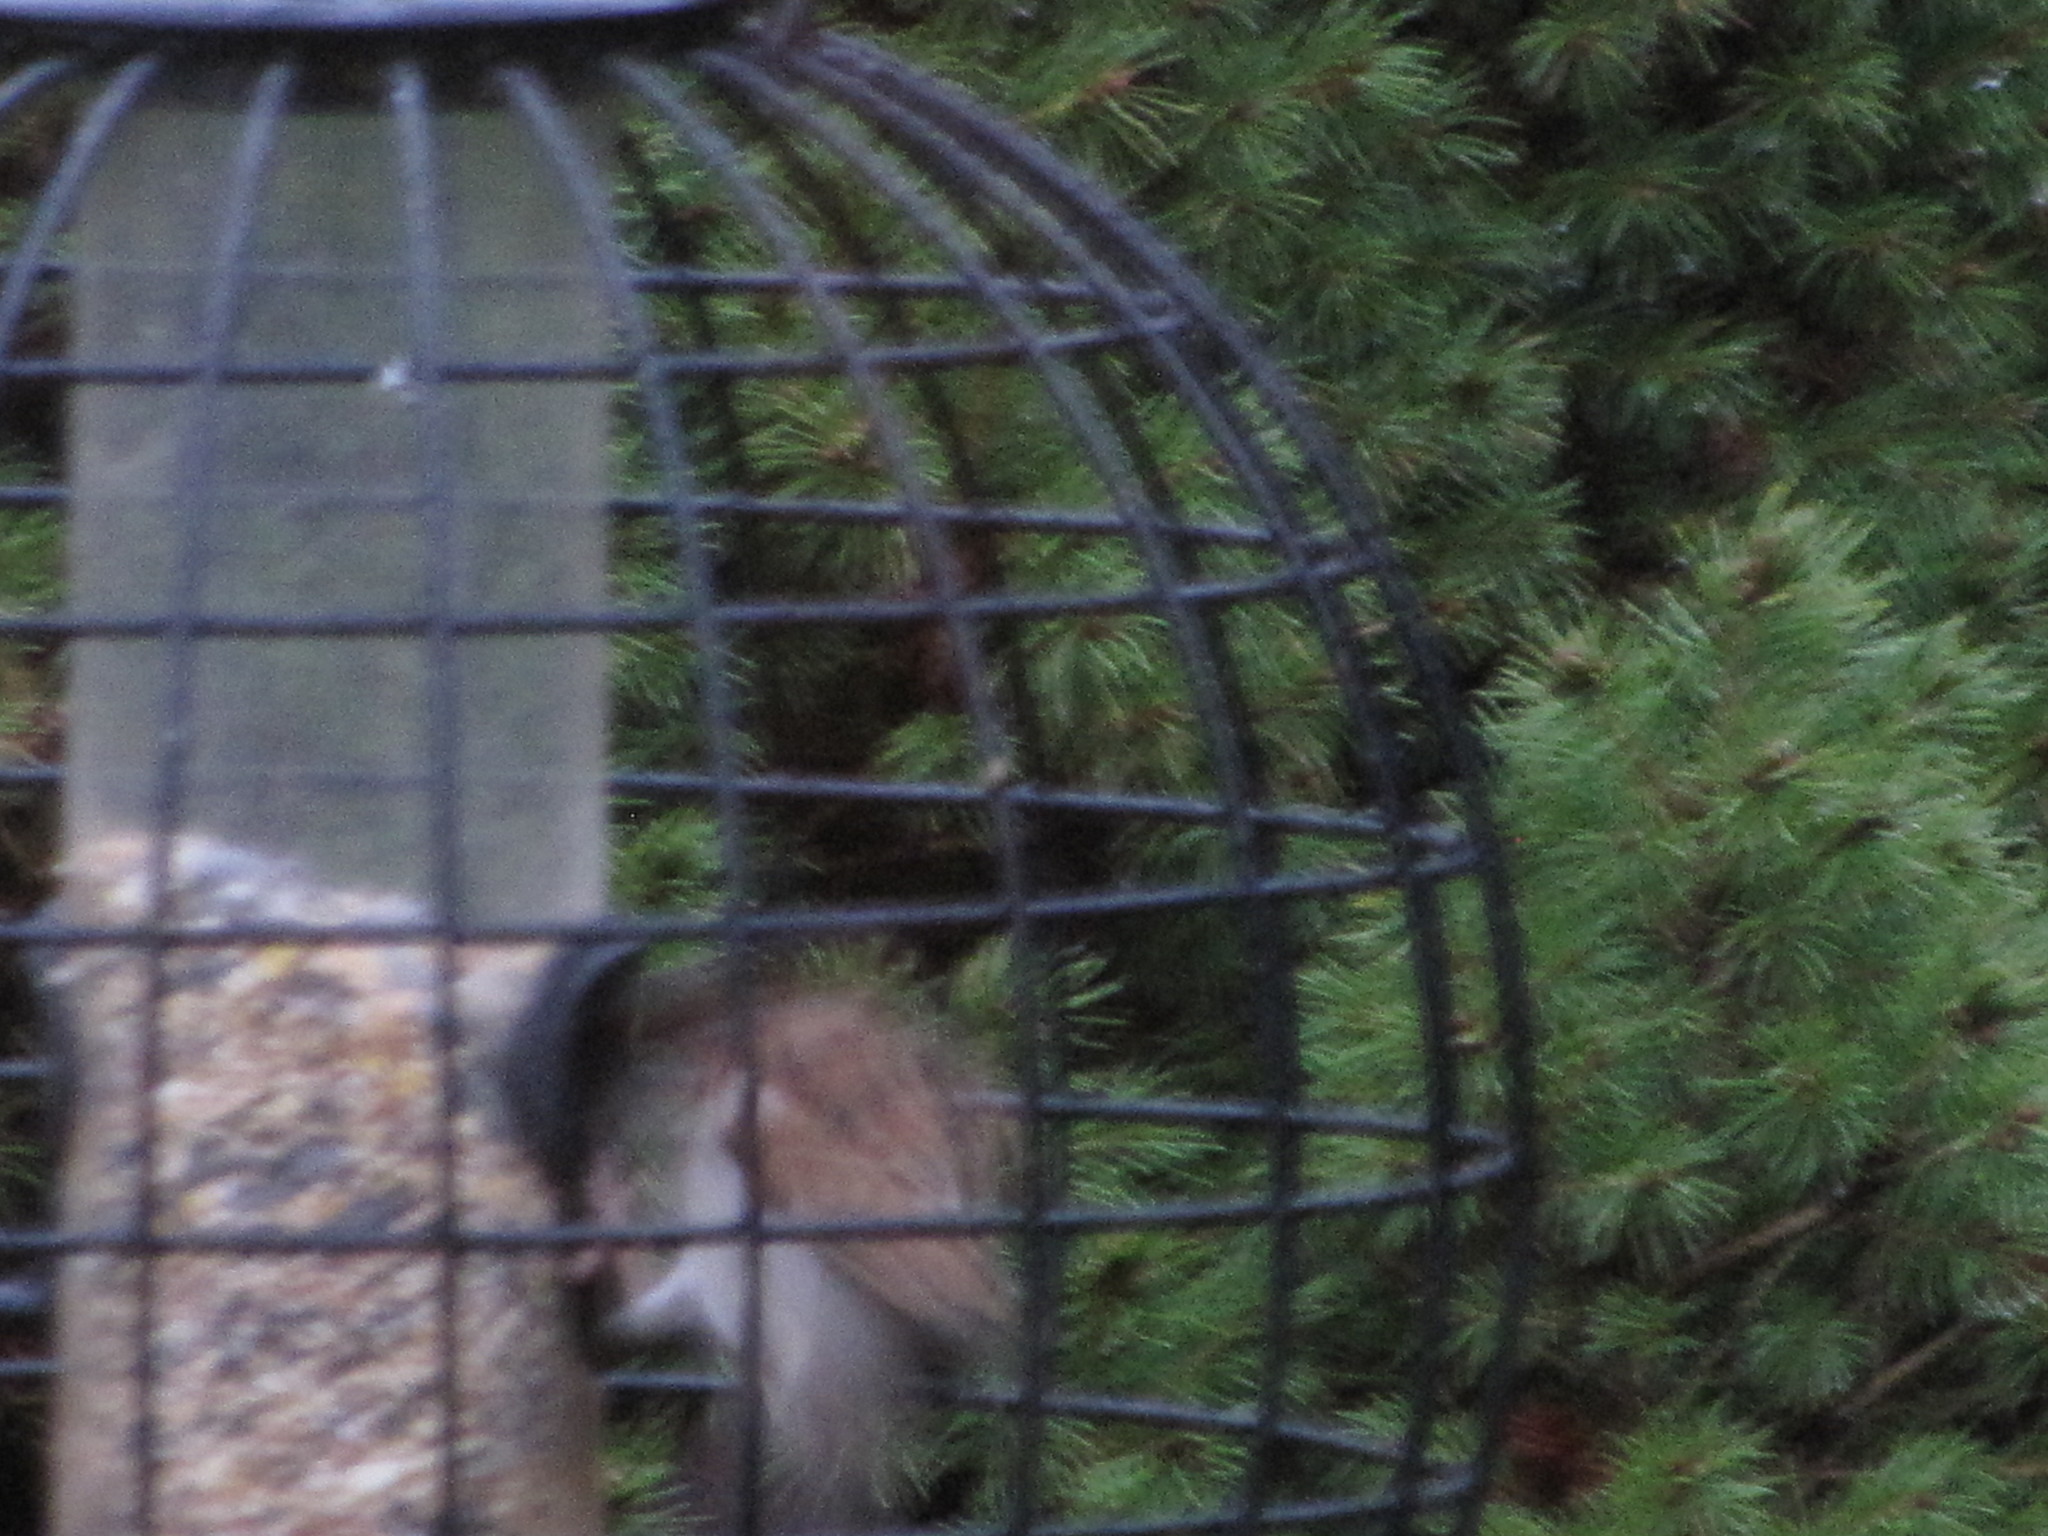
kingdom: Animalia
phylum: Chordata
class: Aves
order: Passeriformes
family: Passeridae
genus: Passer
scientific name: Passer domesticus
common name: House sparrow
